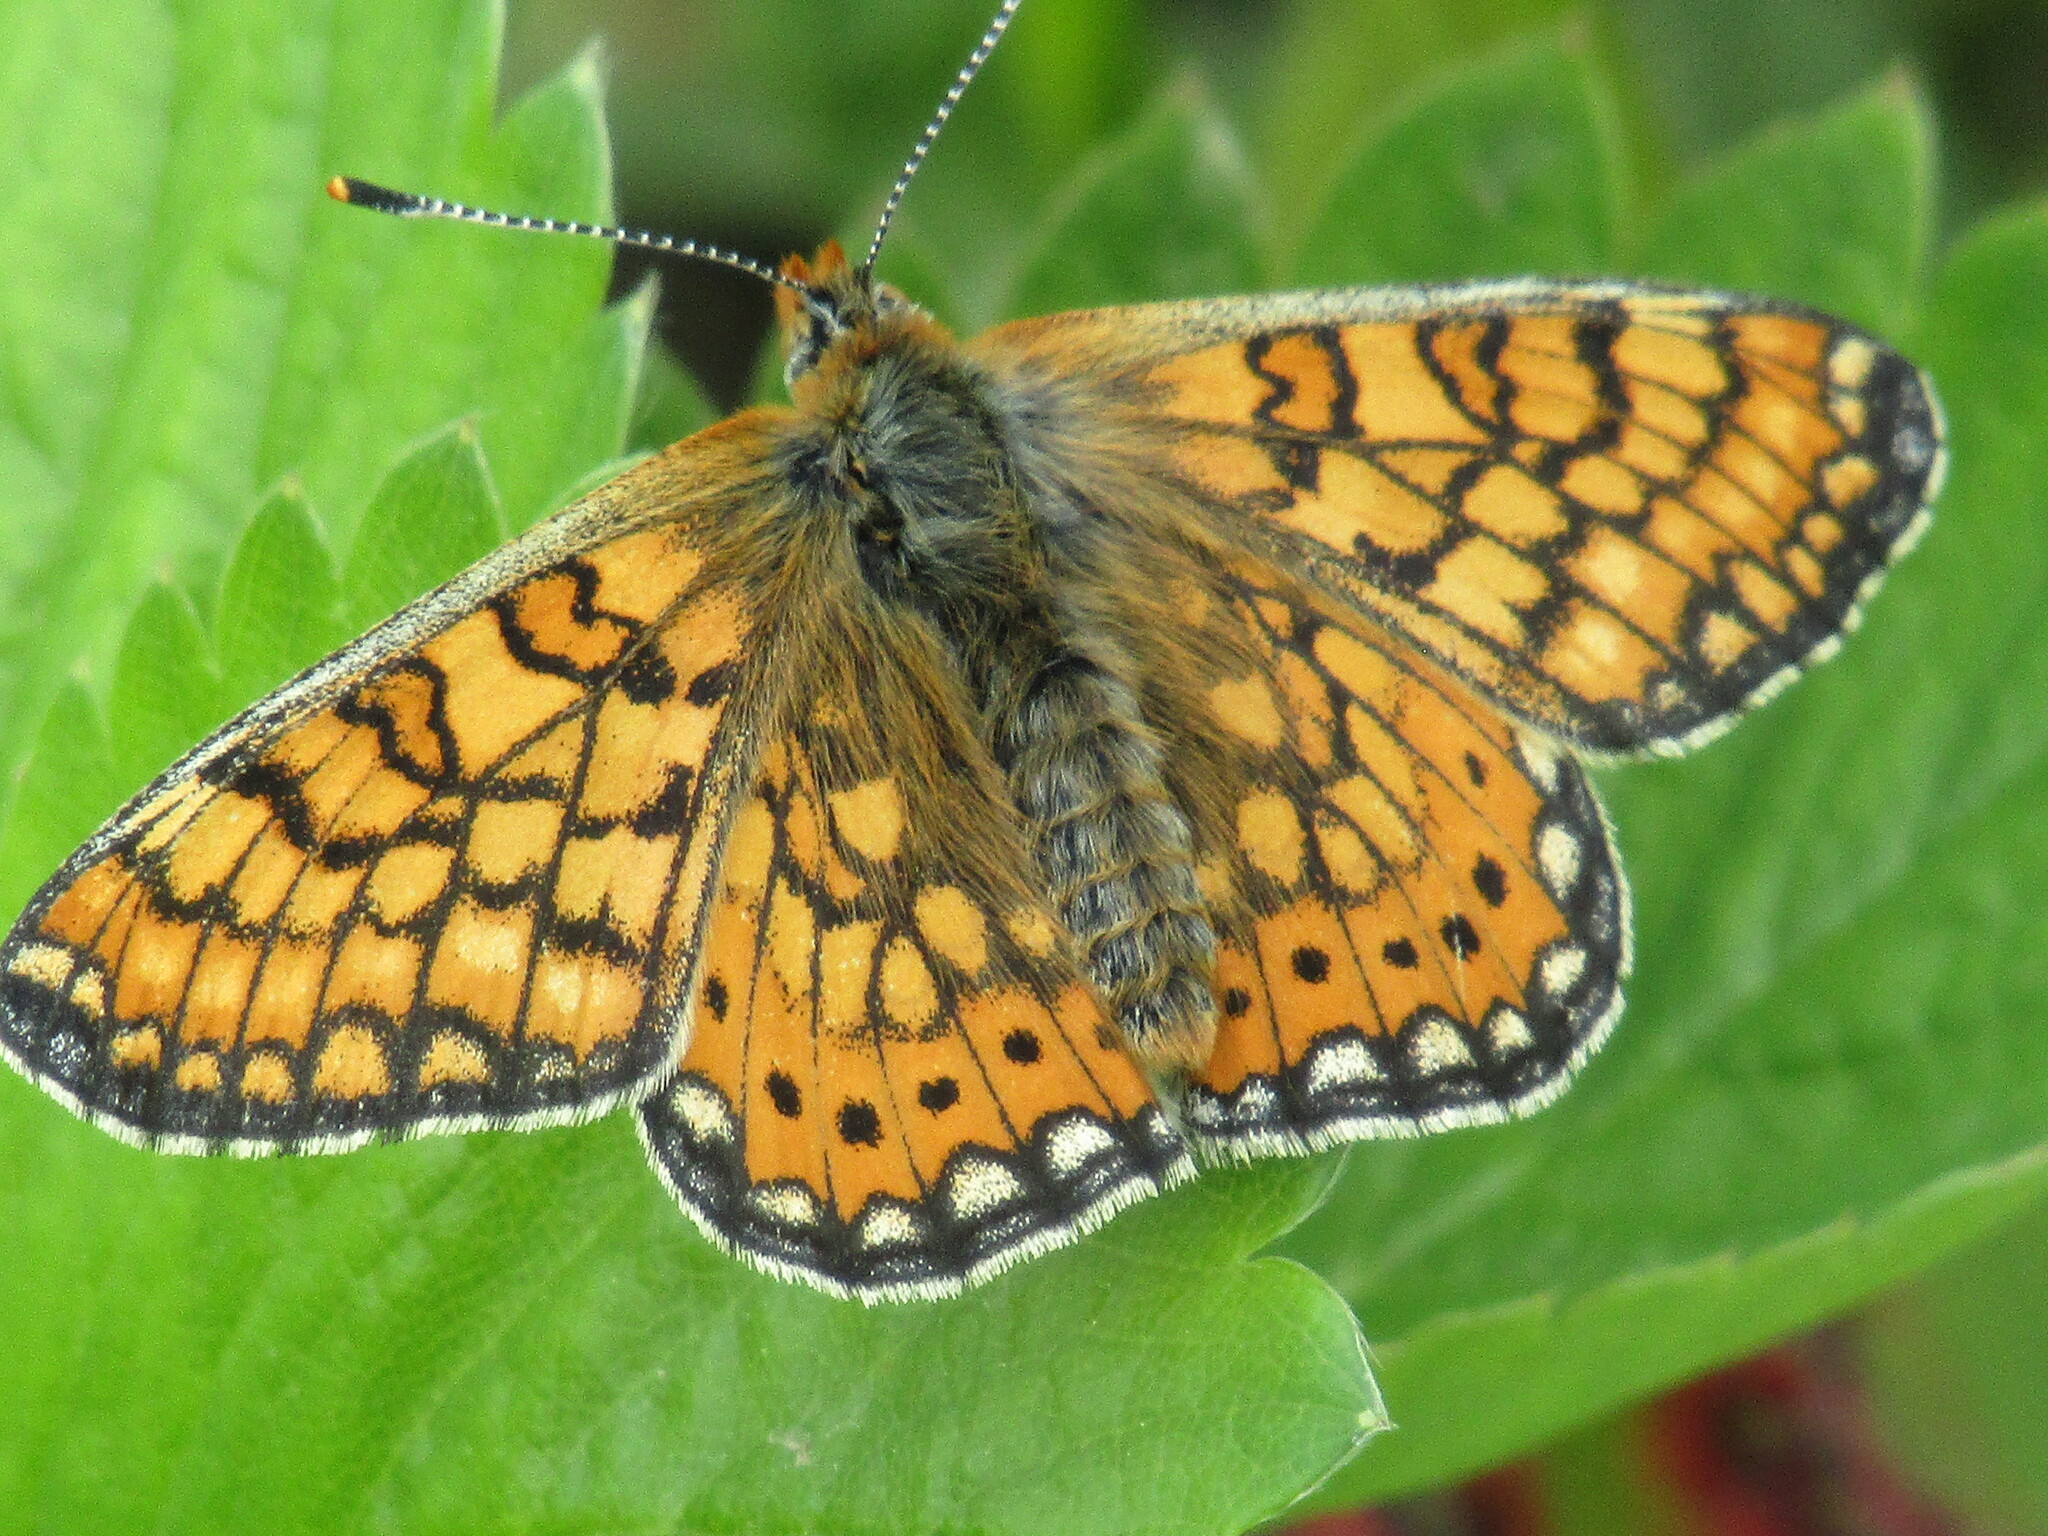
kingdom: Animalia
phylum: Arthropoda
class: Insecta
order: Lepidoptera
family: Nymphalidae
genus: Euphydryas
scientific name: Euphydryas aurinia
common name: Marsh fritillary
